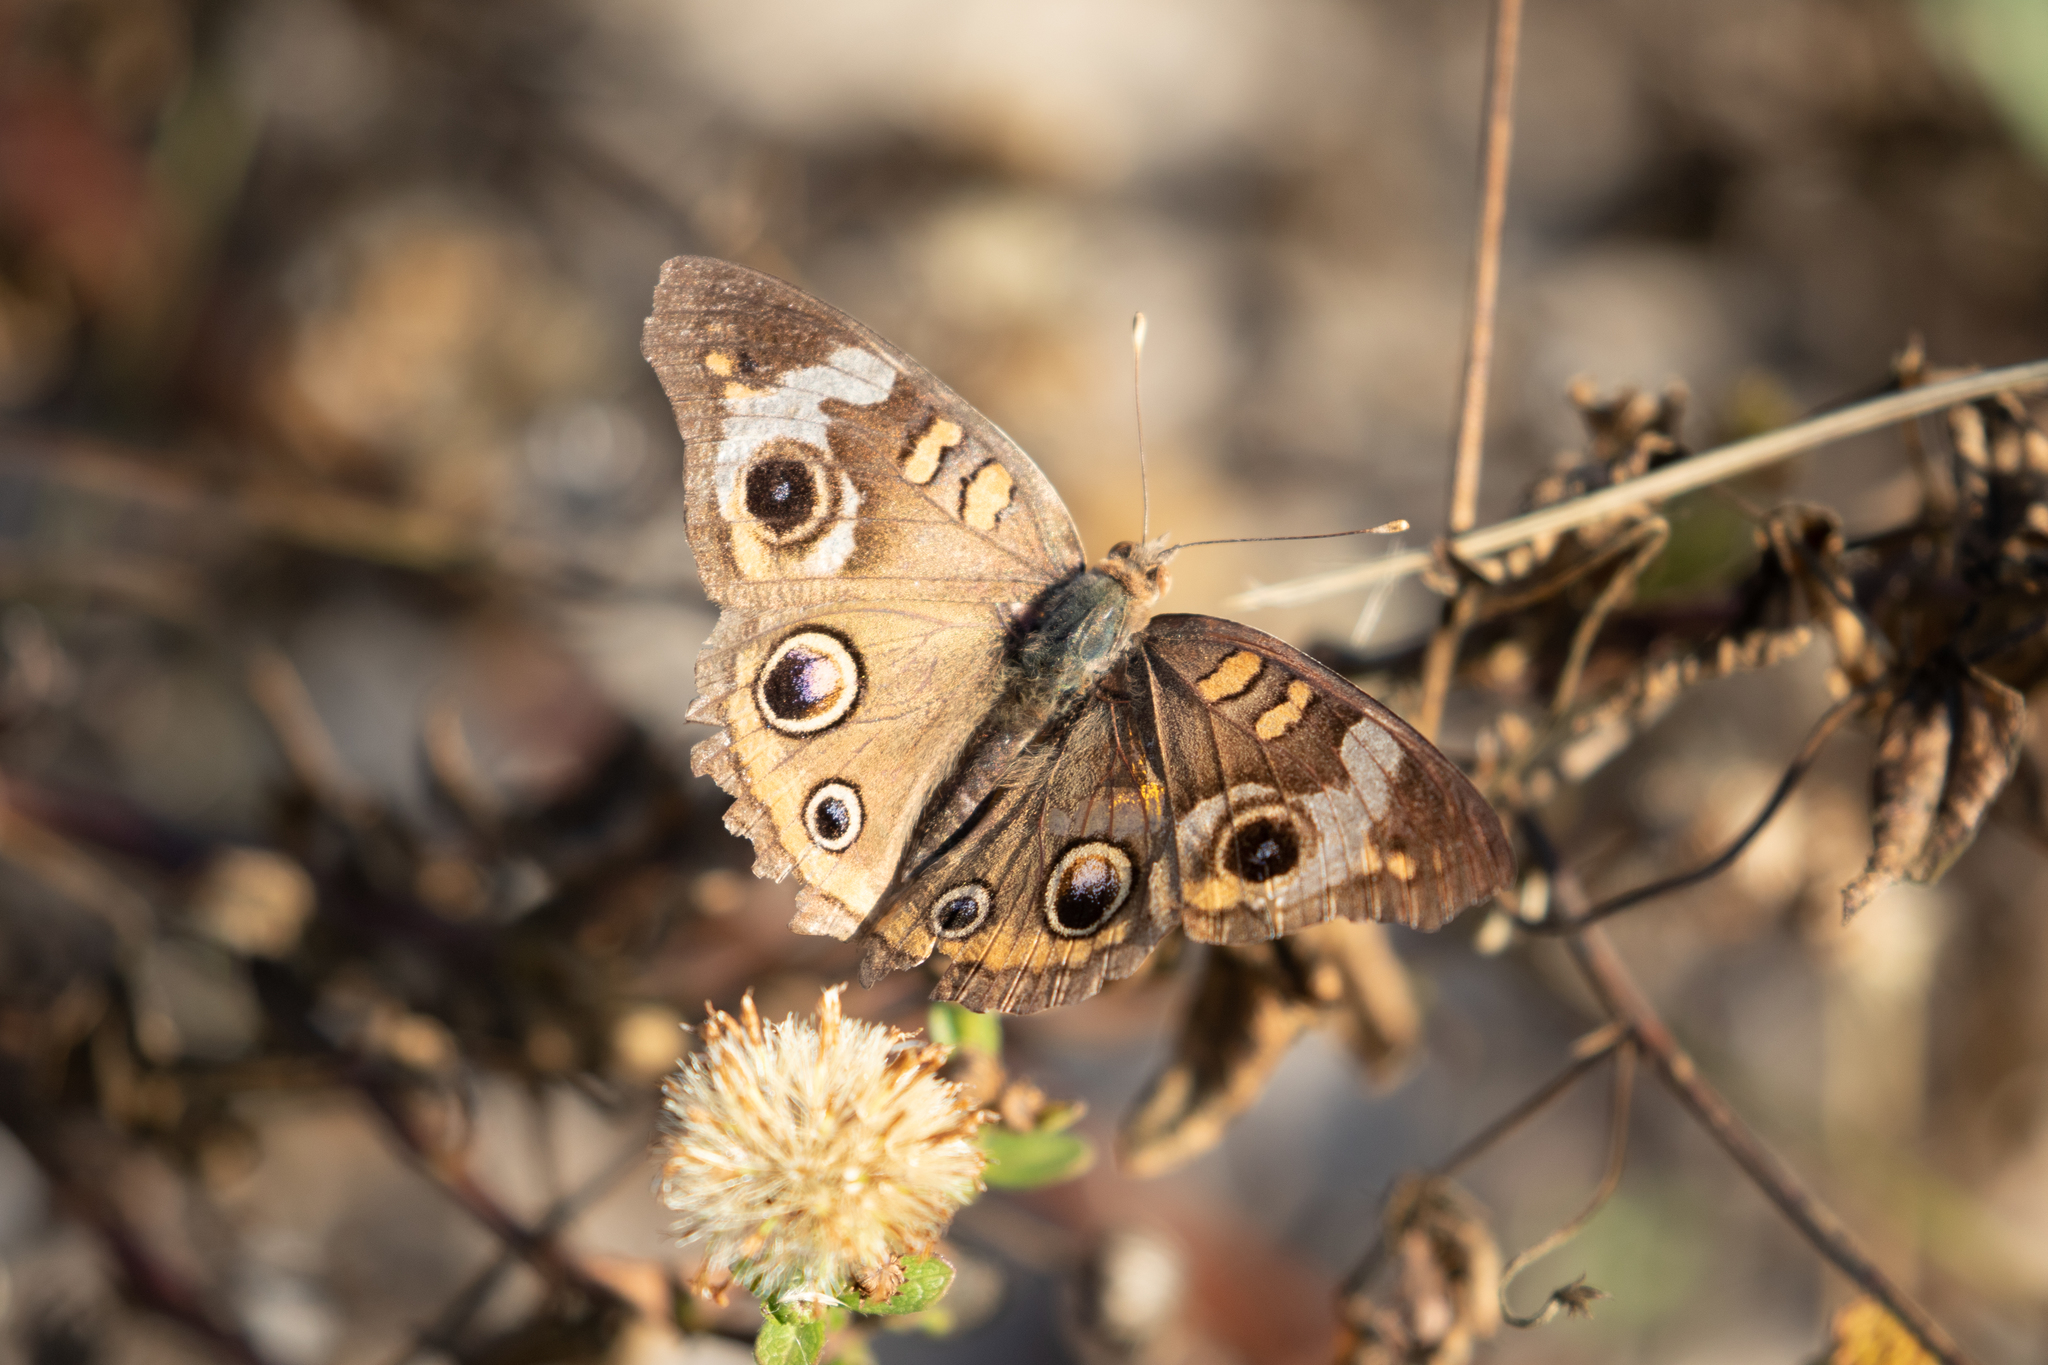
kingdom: Animalia
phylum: Arthropoda
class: Insecta
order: Lepidoptera
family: Nymphalidae
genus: Junonia
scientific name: Junonia coenia
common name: Common buckeye
